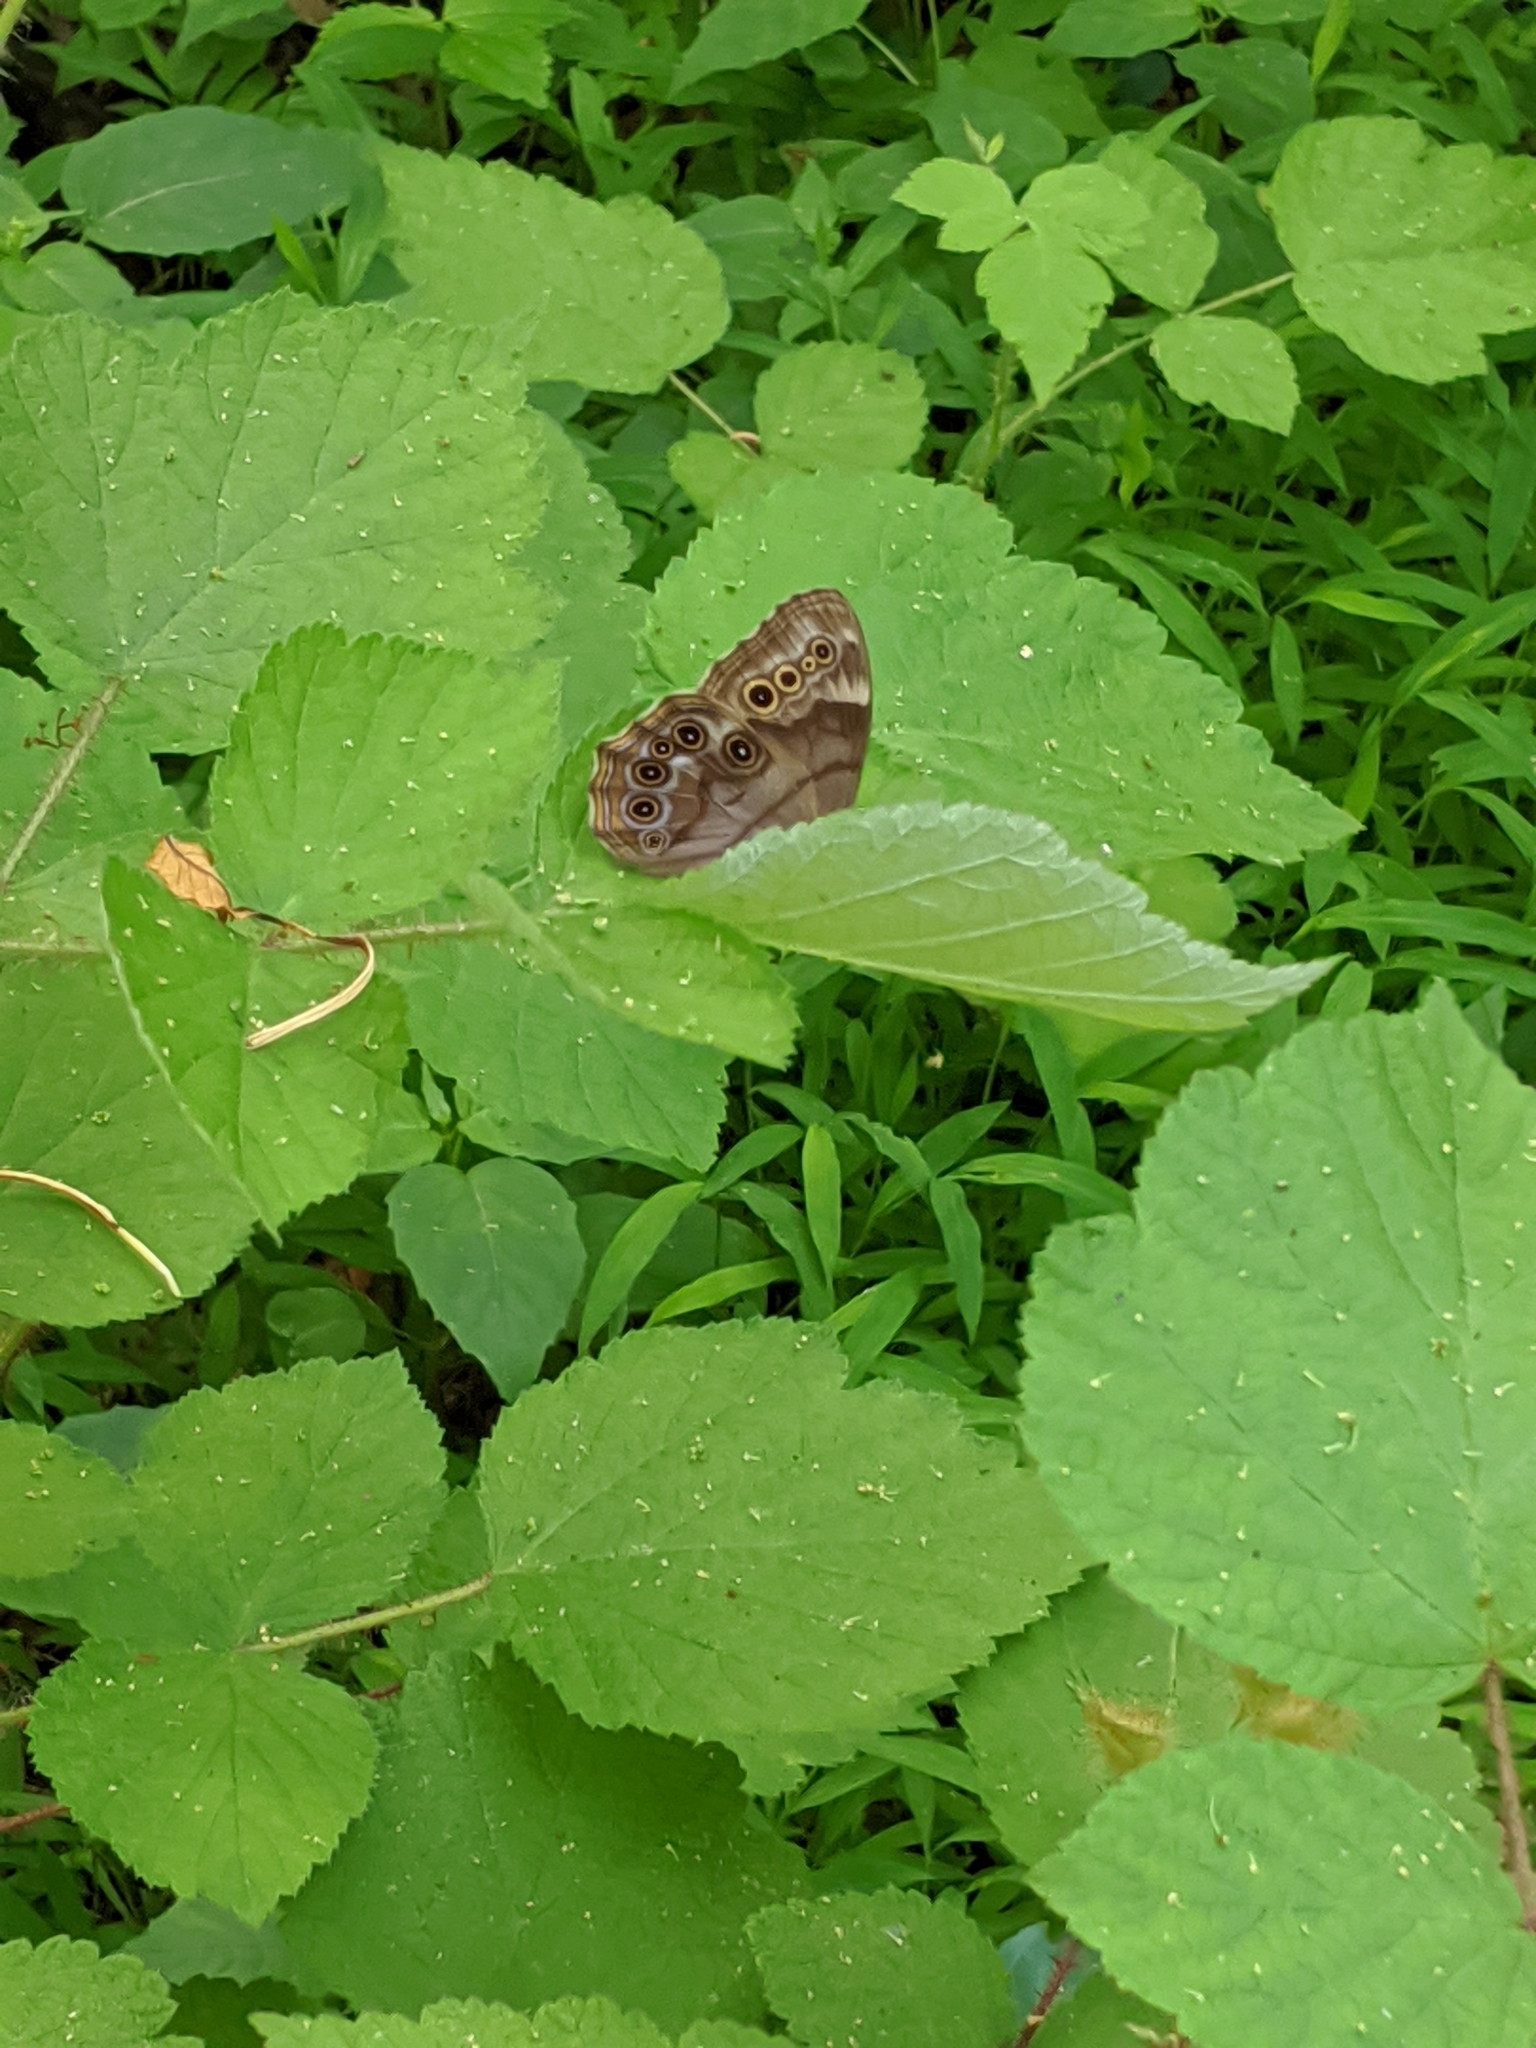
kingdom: Animalia
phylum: Arthropoda
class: Insecta
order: Lepidoptera
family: Nymphalidae
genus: Lethe
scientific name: Lethe anthedon
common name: Northern pearly-eye
